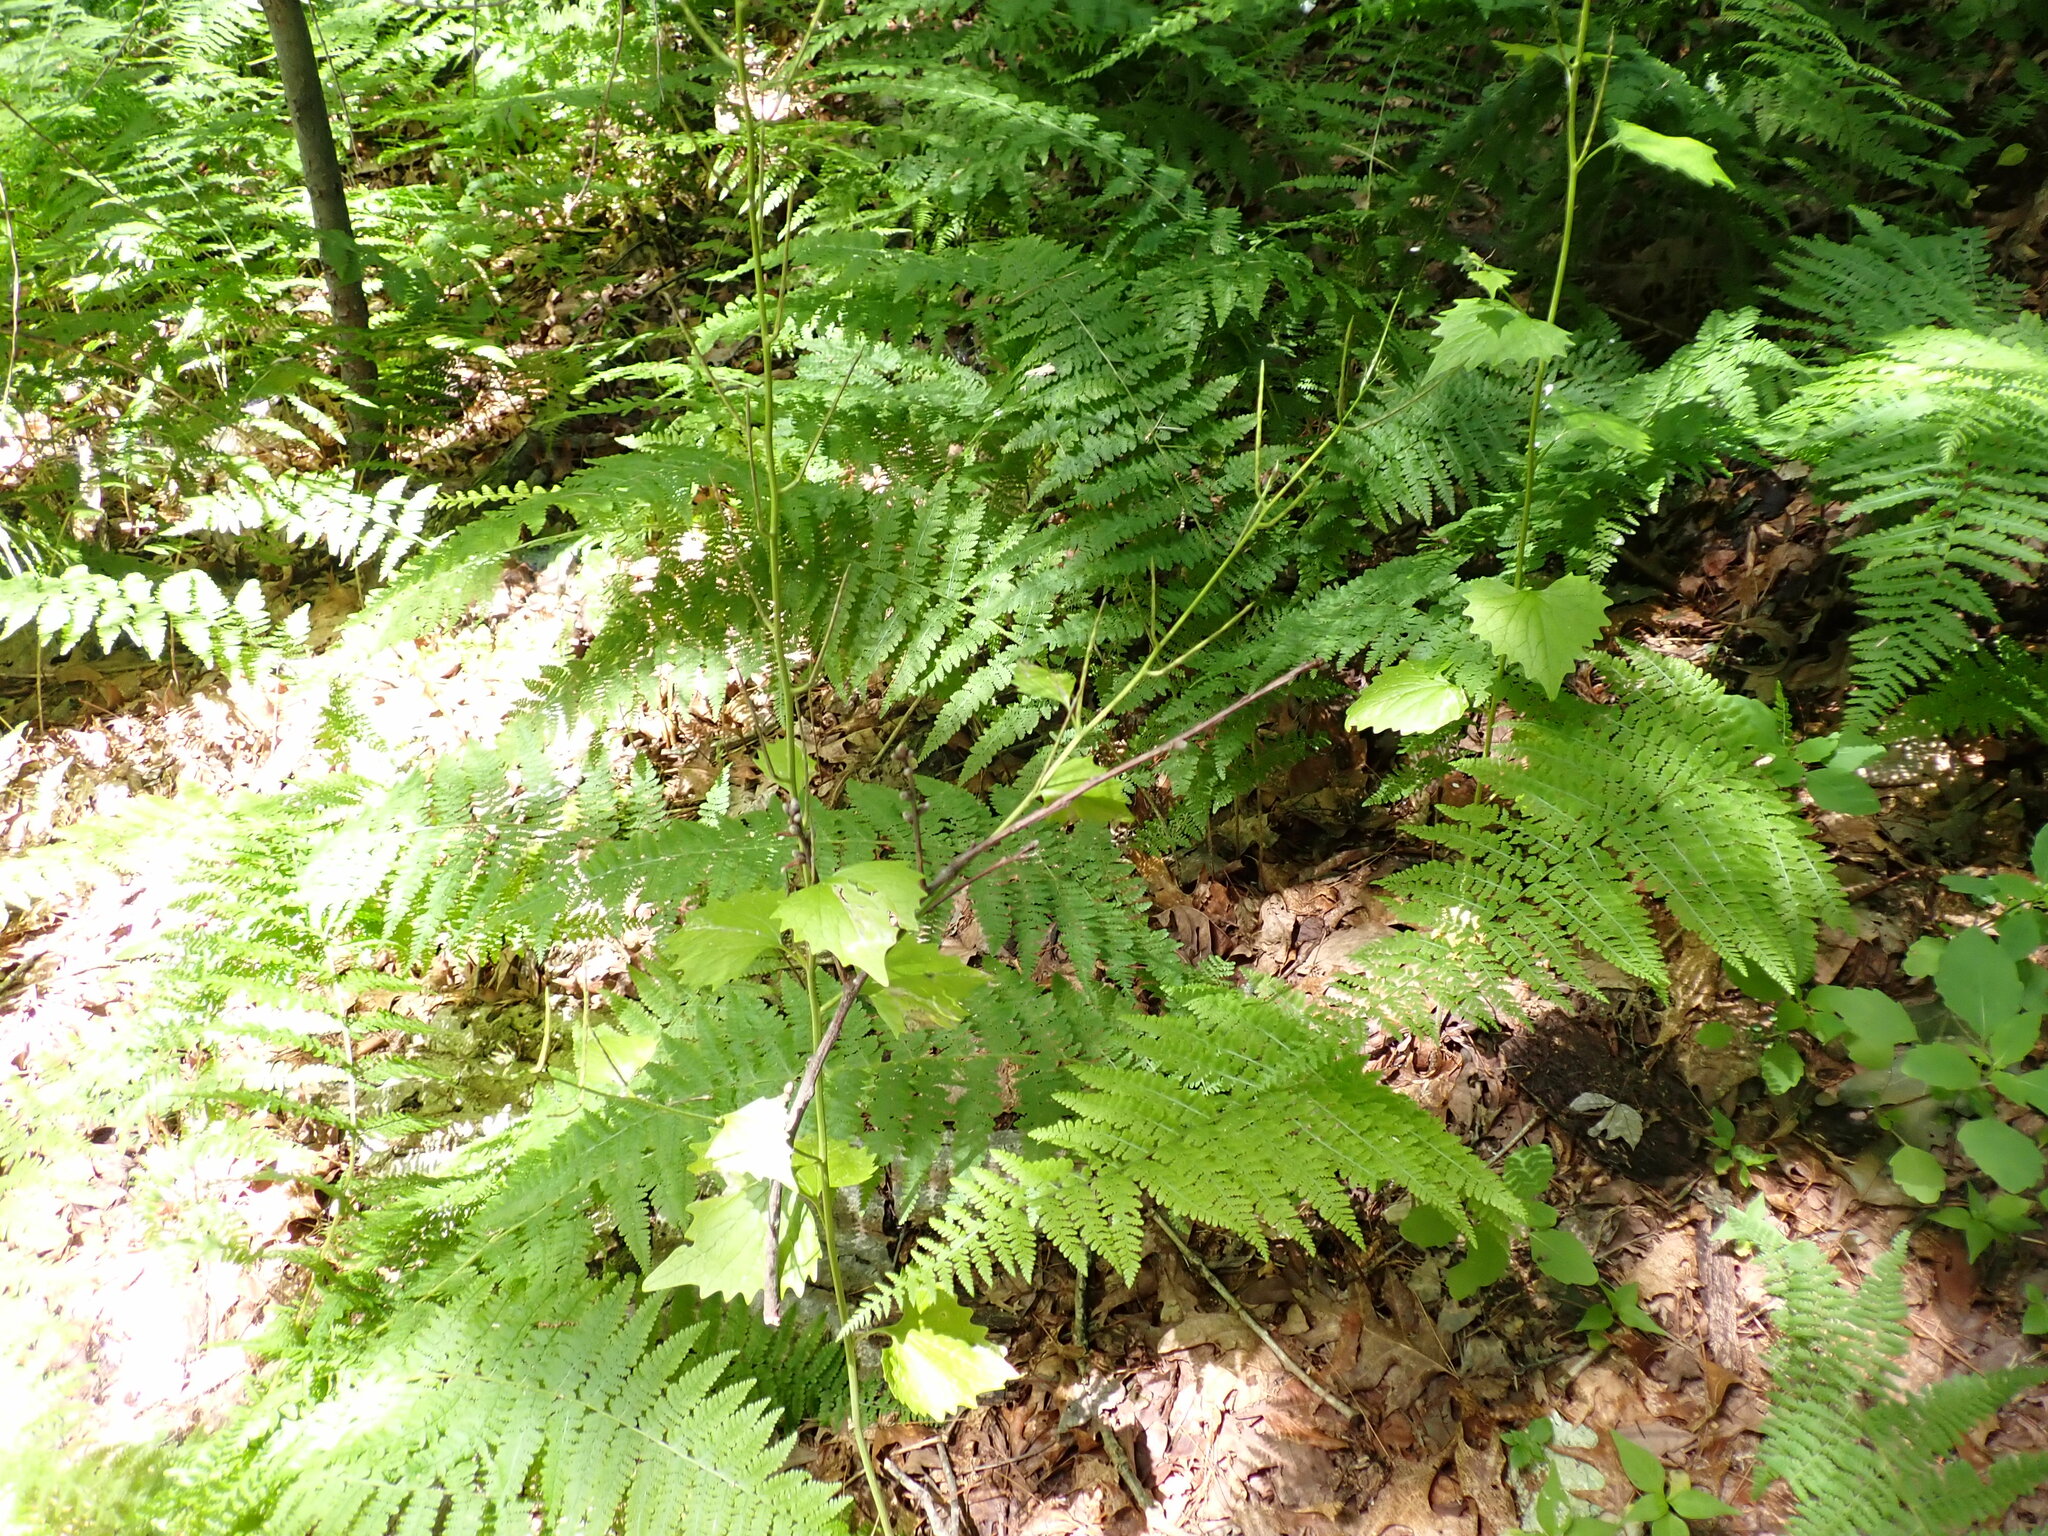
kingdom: Plantae
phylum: Tracheophyta
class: Polypodiopsida
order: Polypodiales
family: Dennstaedtiaceae
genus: Sitobolium
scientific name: Sitobolium punctilobum
